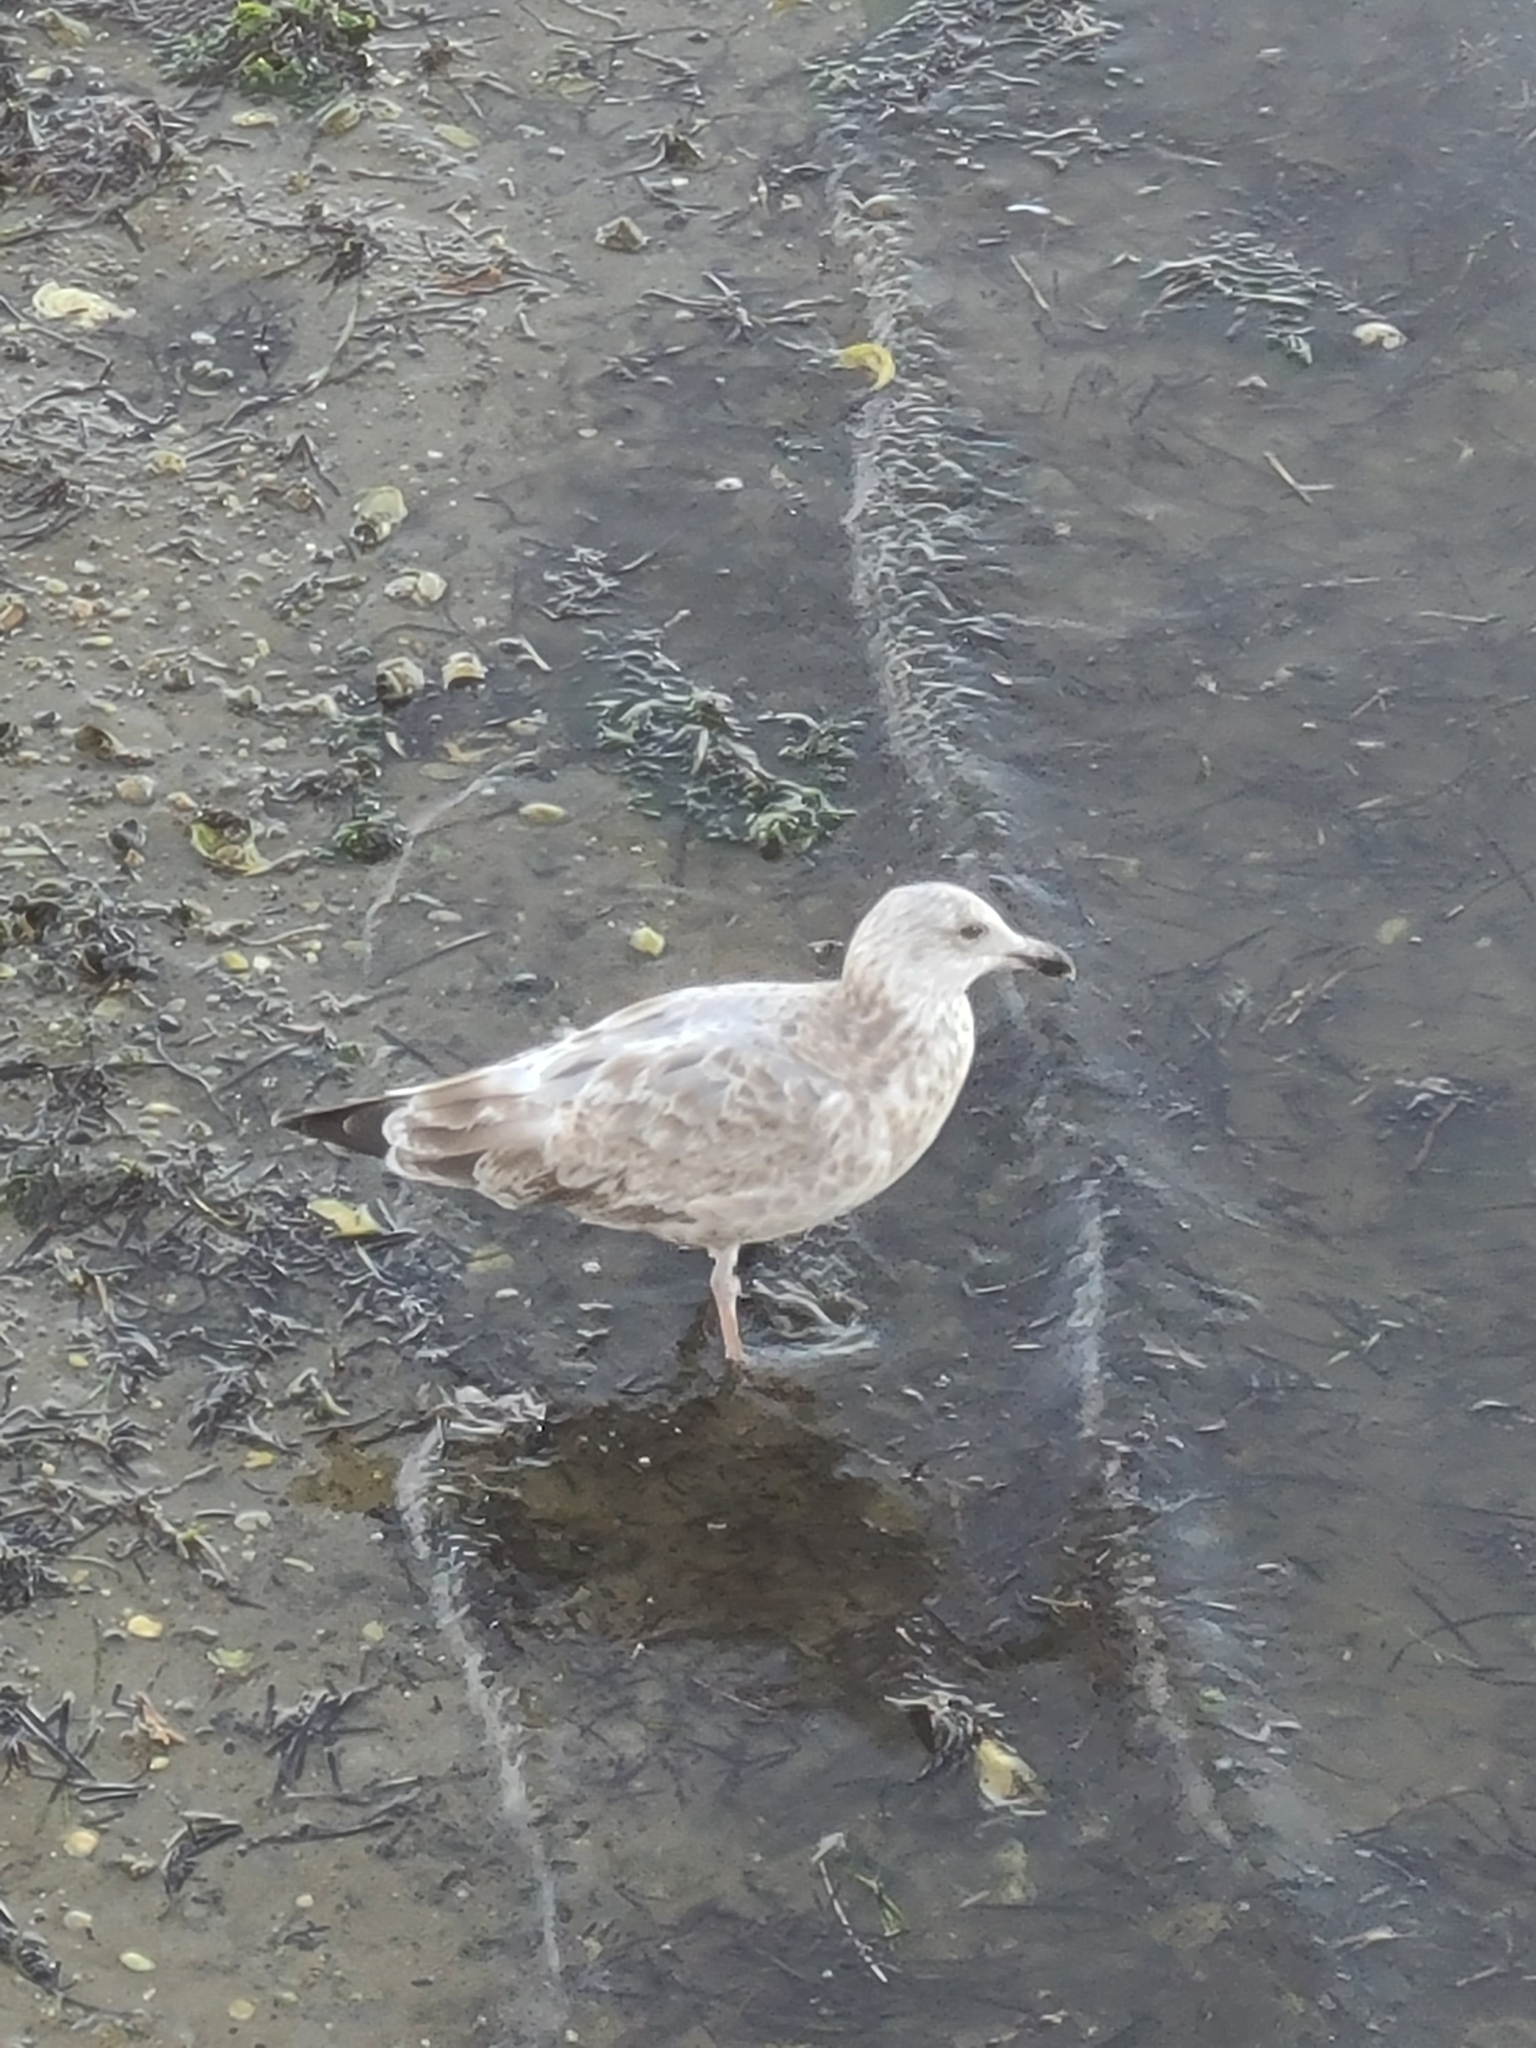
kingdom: Animalia
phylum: Chordata
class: Aves
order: Charadriiformes
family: Laridae
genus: Larus
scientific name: Larus argentatus
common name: Herring gull
